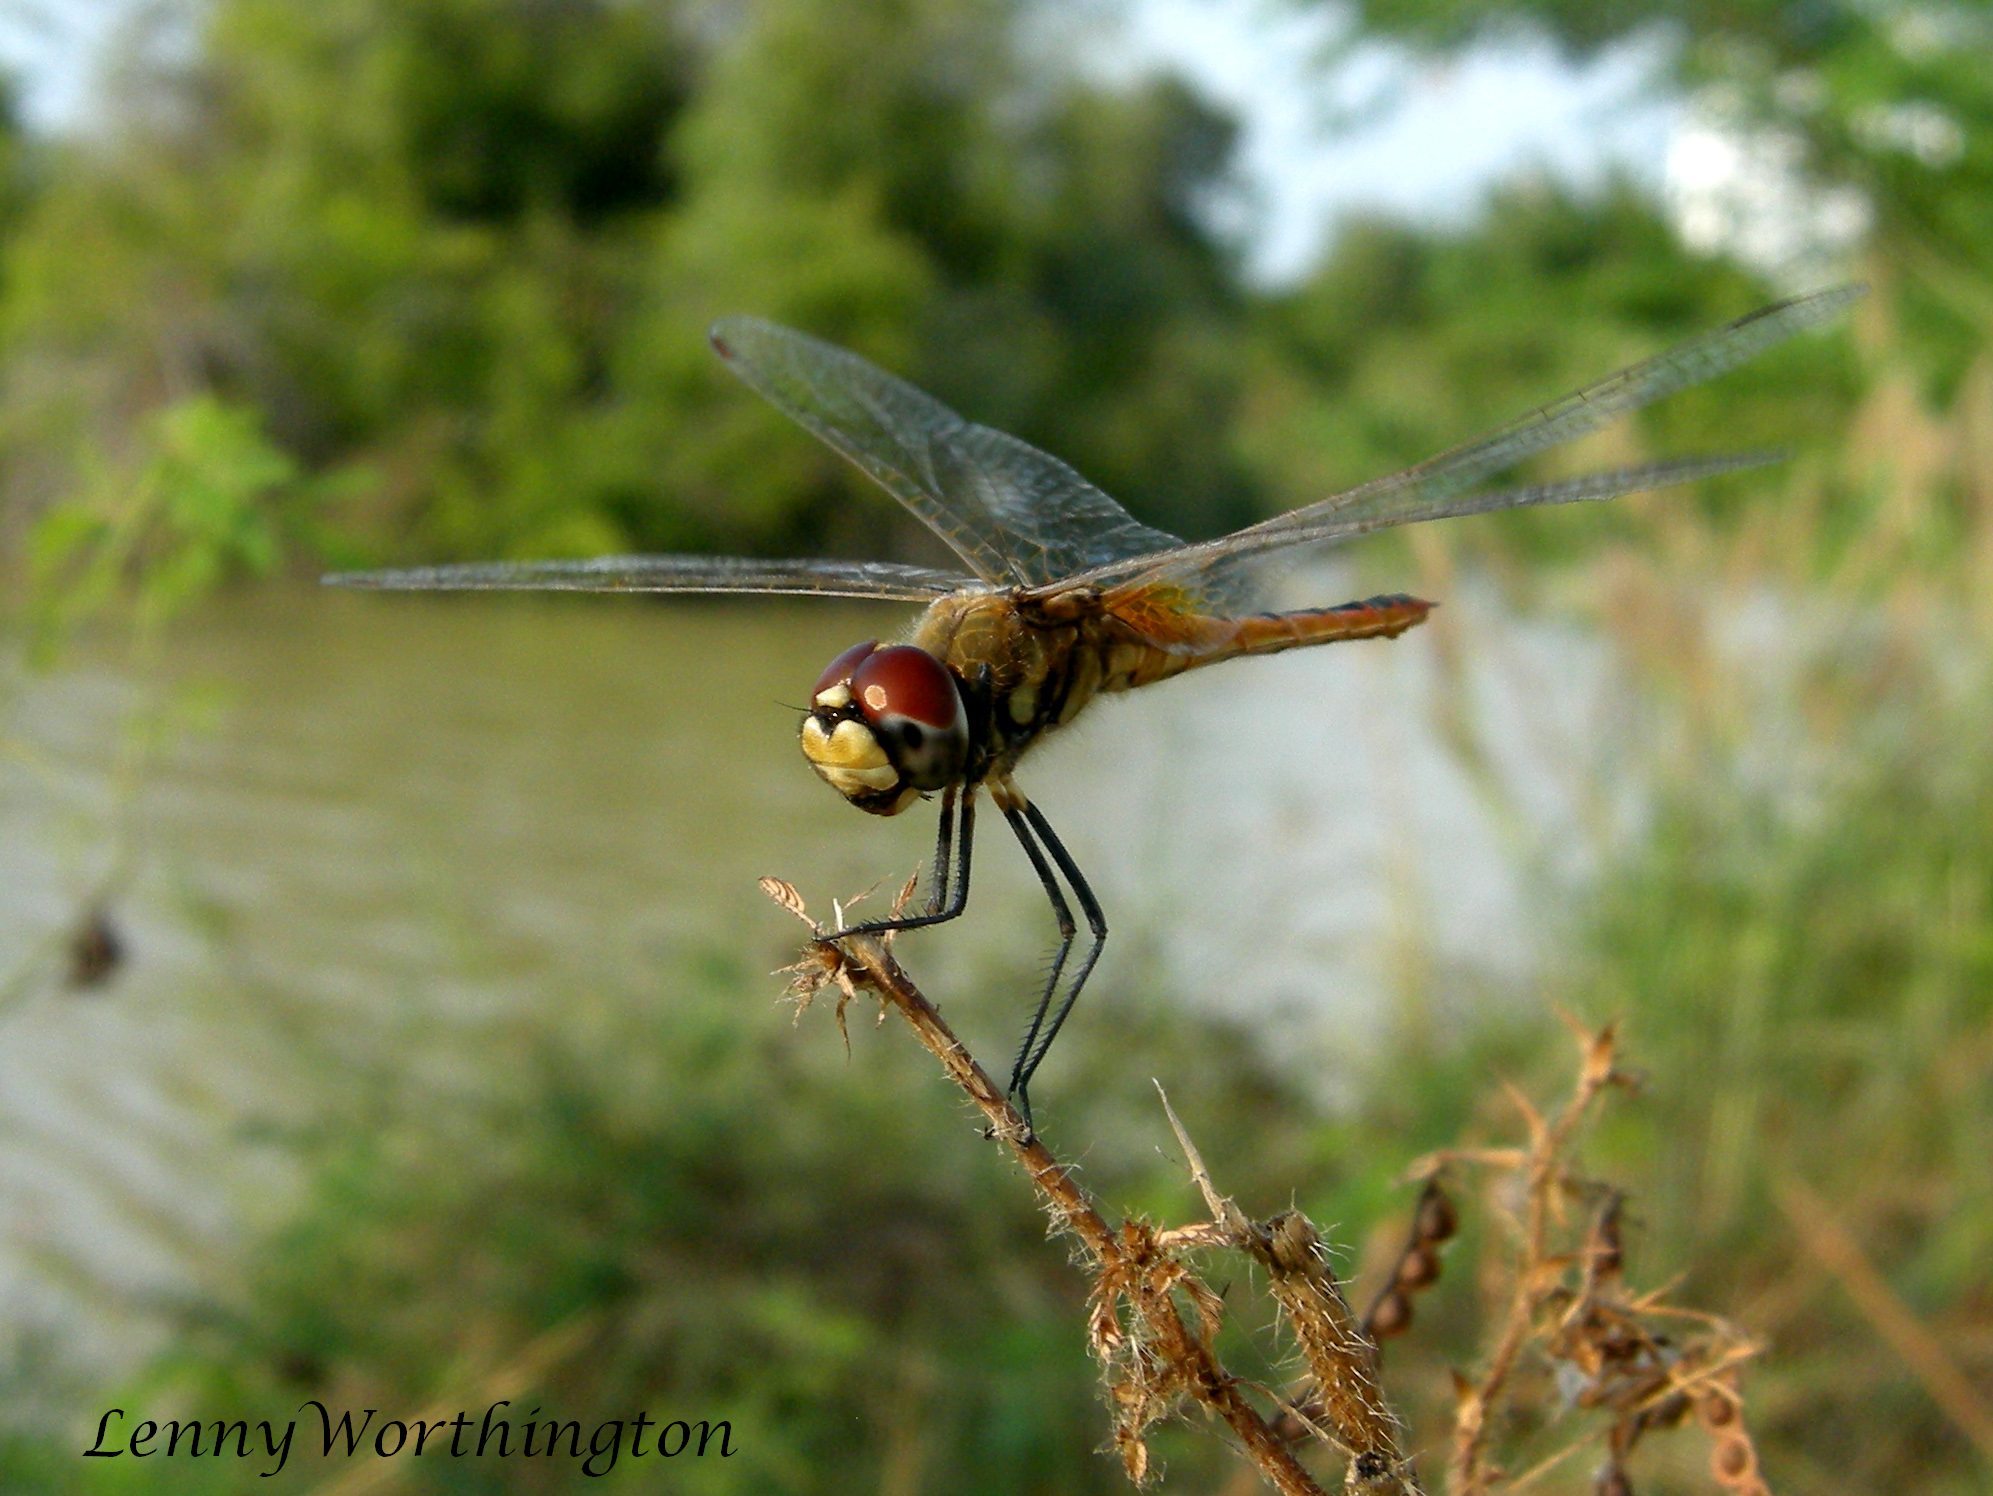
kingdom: Animalia
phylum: Arthropoda
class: Insecta
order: Odonata
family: Libellulidae
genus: Macrodiplax
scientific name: Macrodiplax cora
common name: Coastal glider
